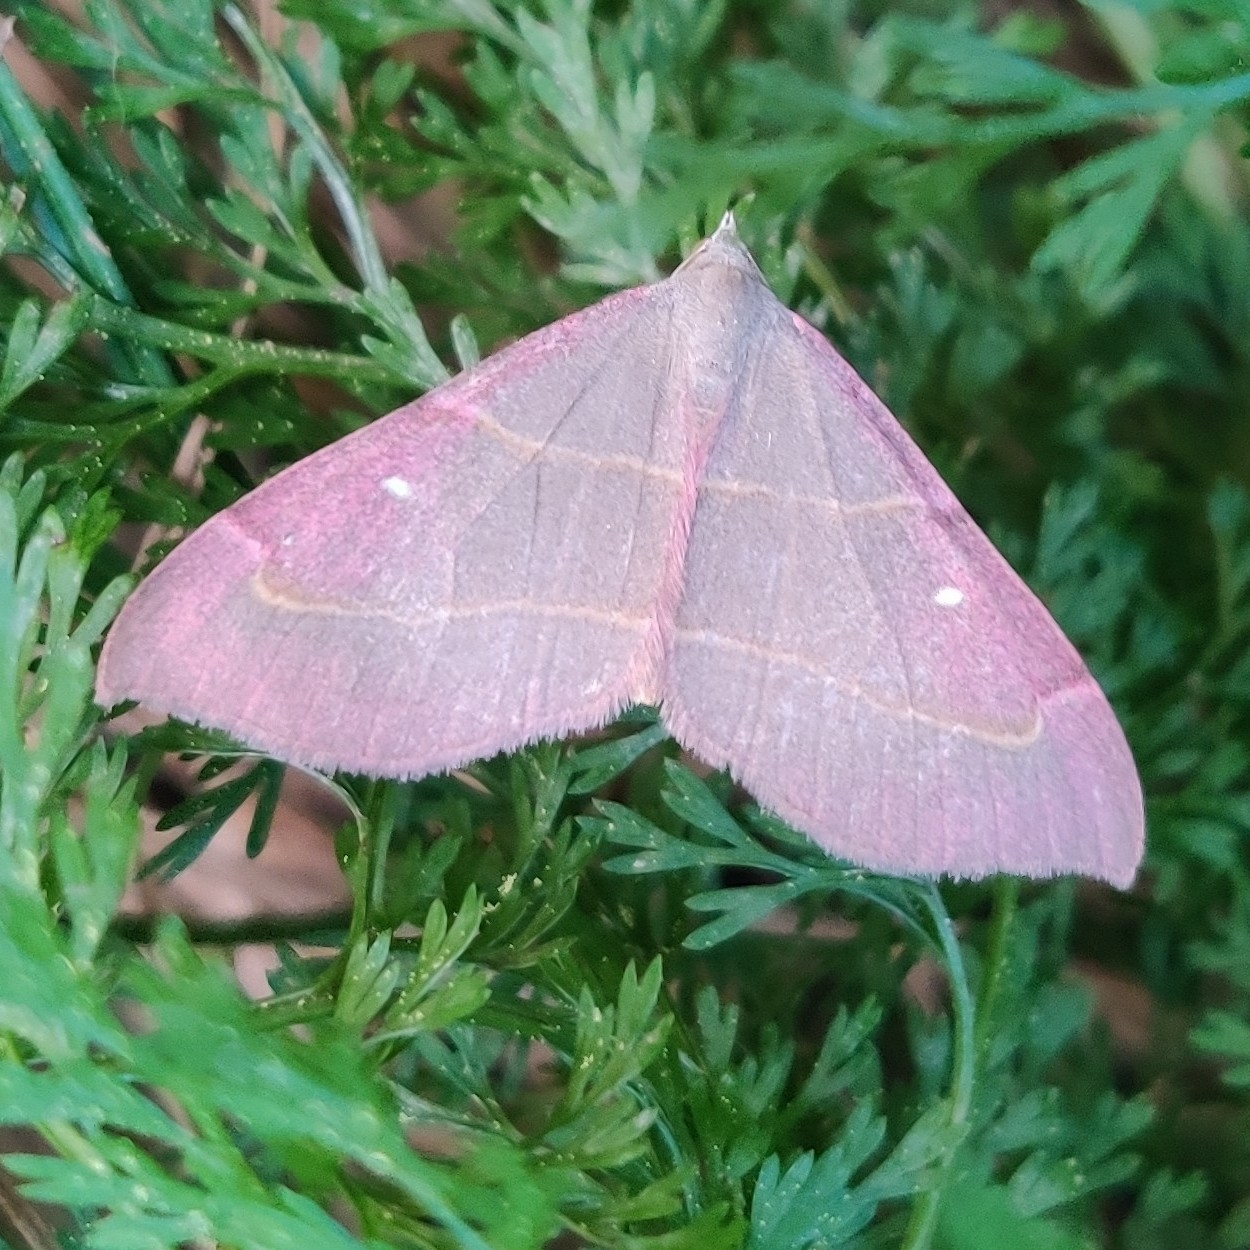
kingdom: Animalia
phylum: Arthropoda
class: Insecta
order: Lepidoptera
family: Geometridae
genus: Docirava
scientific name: Docirava pudicata
